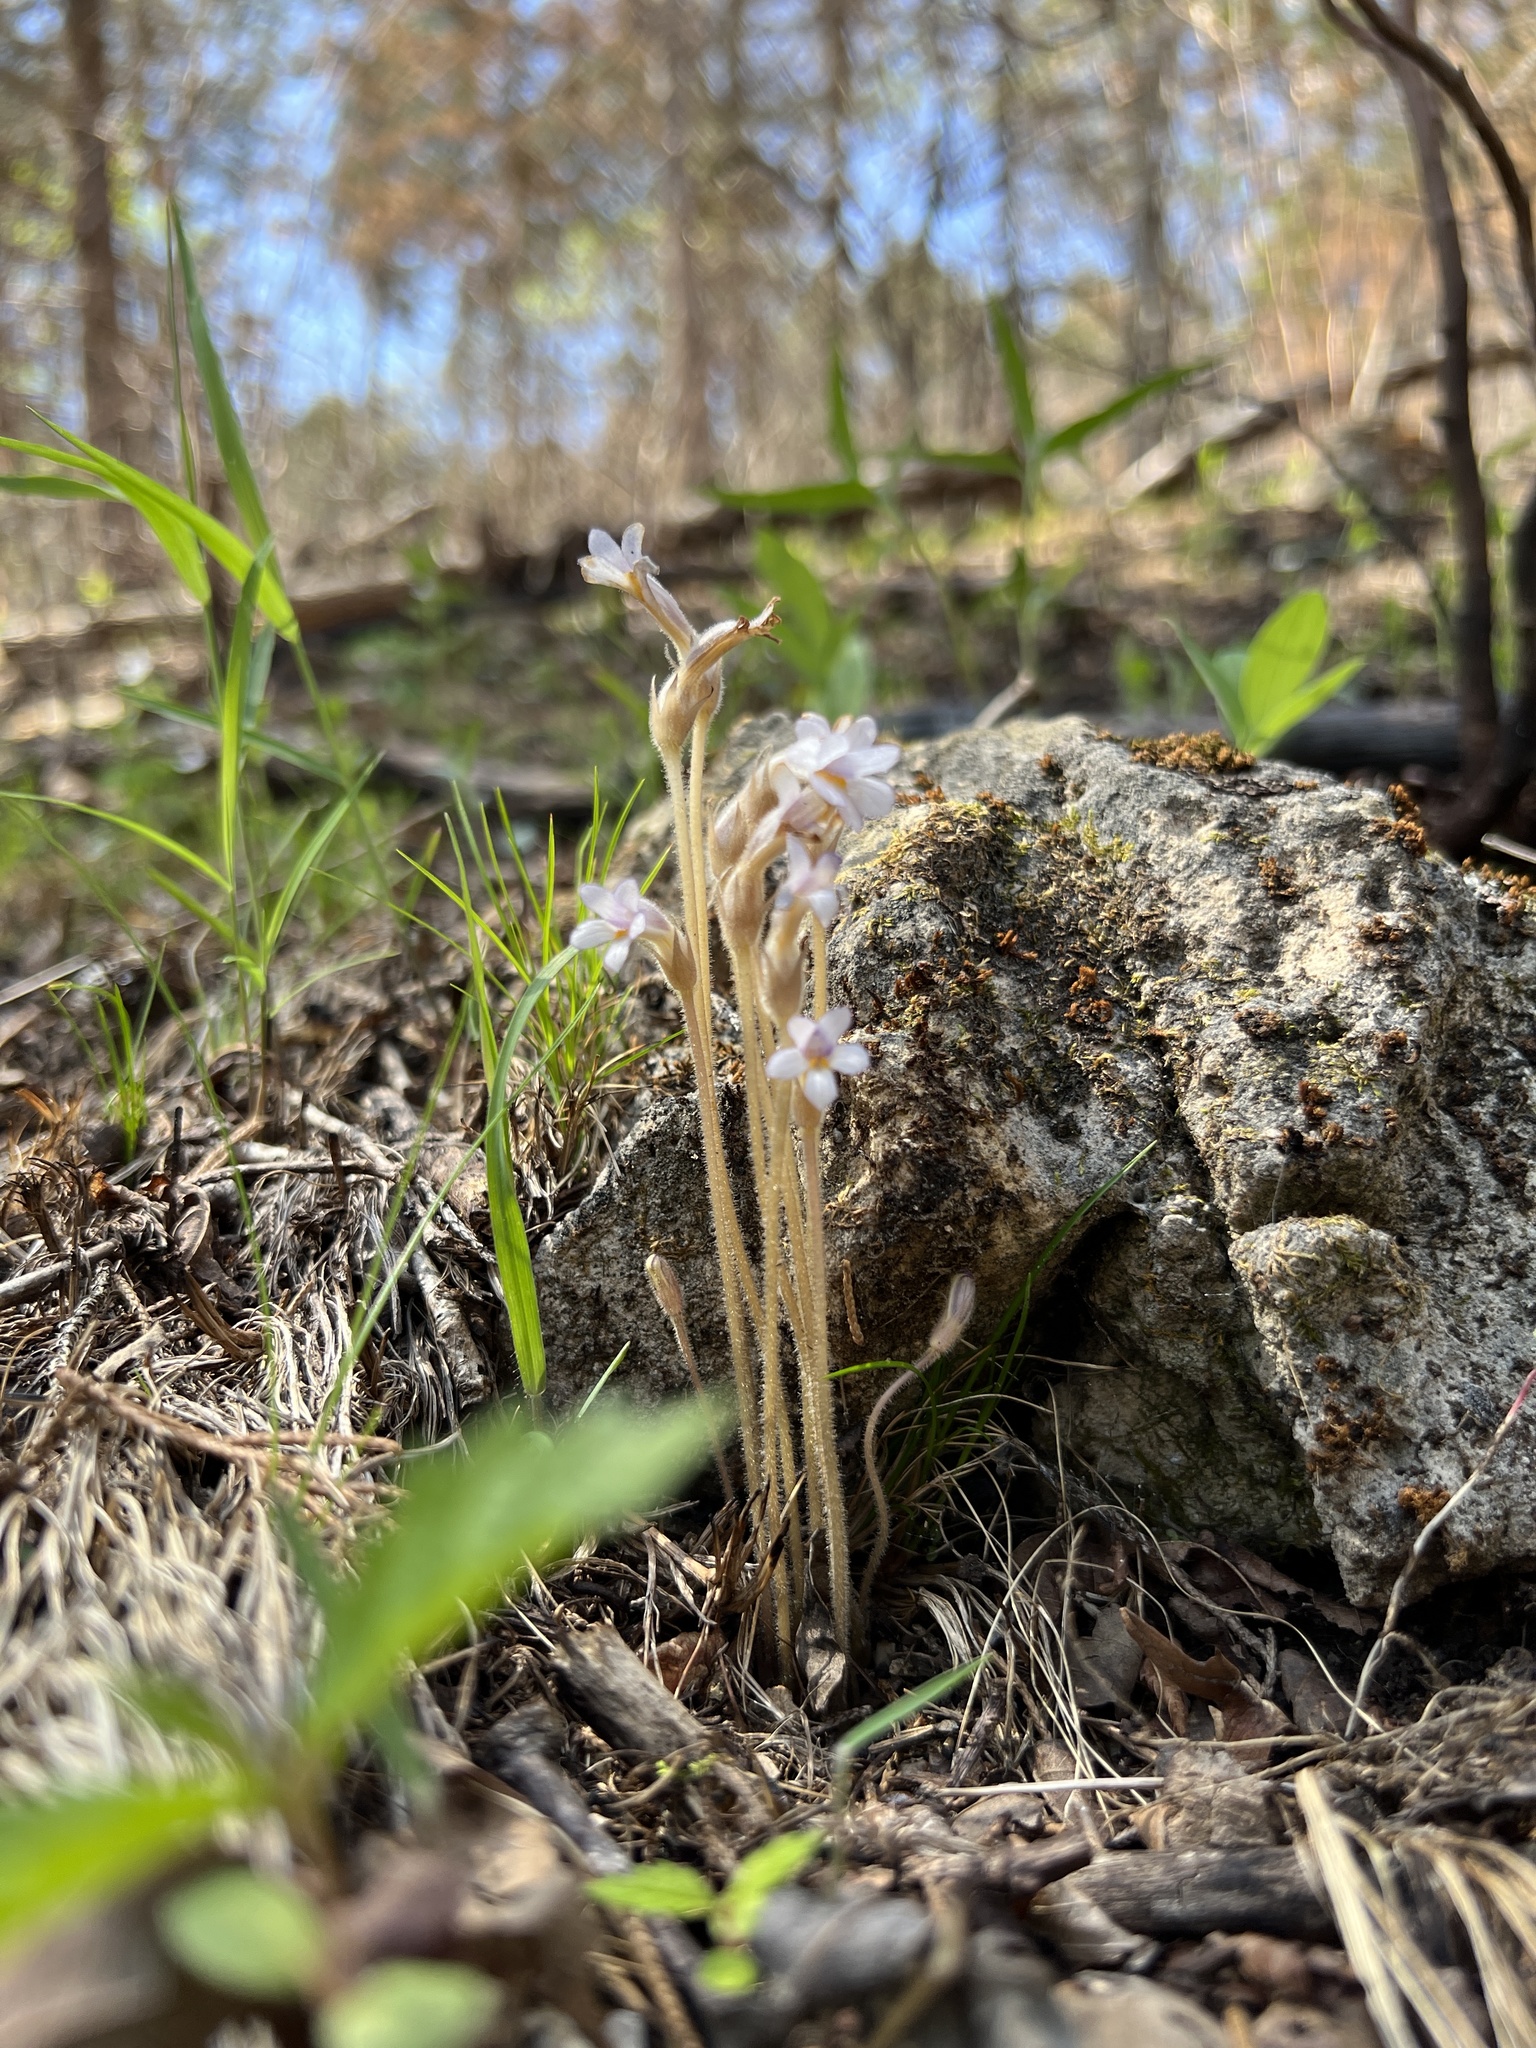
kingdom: Plantae
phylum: Tracheophyta
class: Magnoliopsida
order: Lamiales
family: Orobanchaceae
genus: Aphyllon
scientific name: Aphyllon uniflorum
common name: One-flowered broomrape
